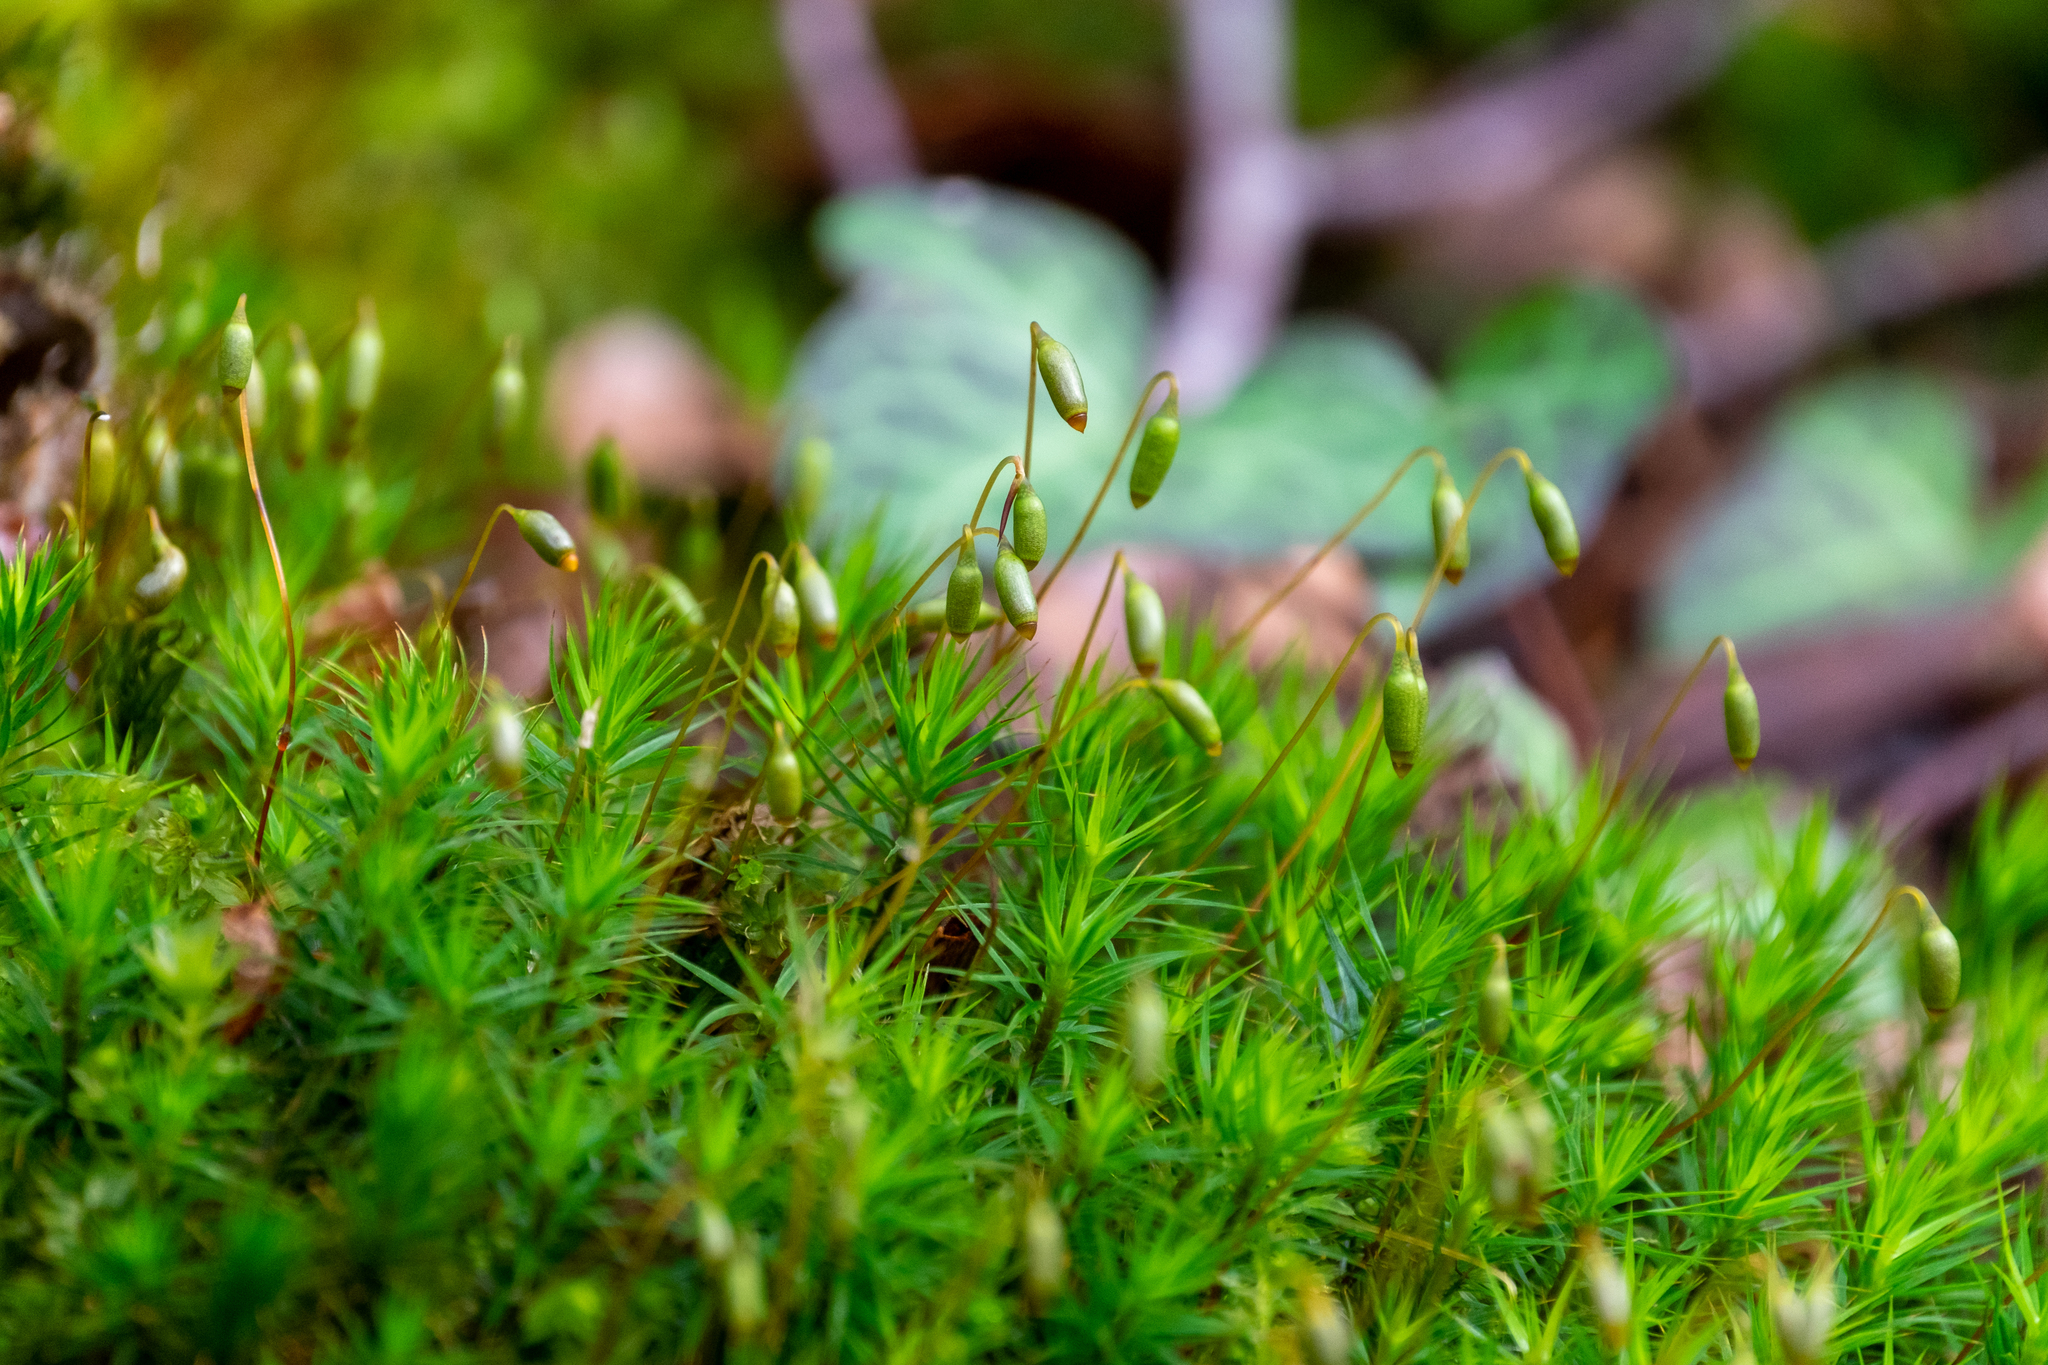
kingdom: Plantae
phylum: Bryophyta
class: Bryopsida
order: Bryales
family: Mniaceae
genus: Mnium
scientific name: Mnium hornum
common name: Swan's-neck leafy moss
